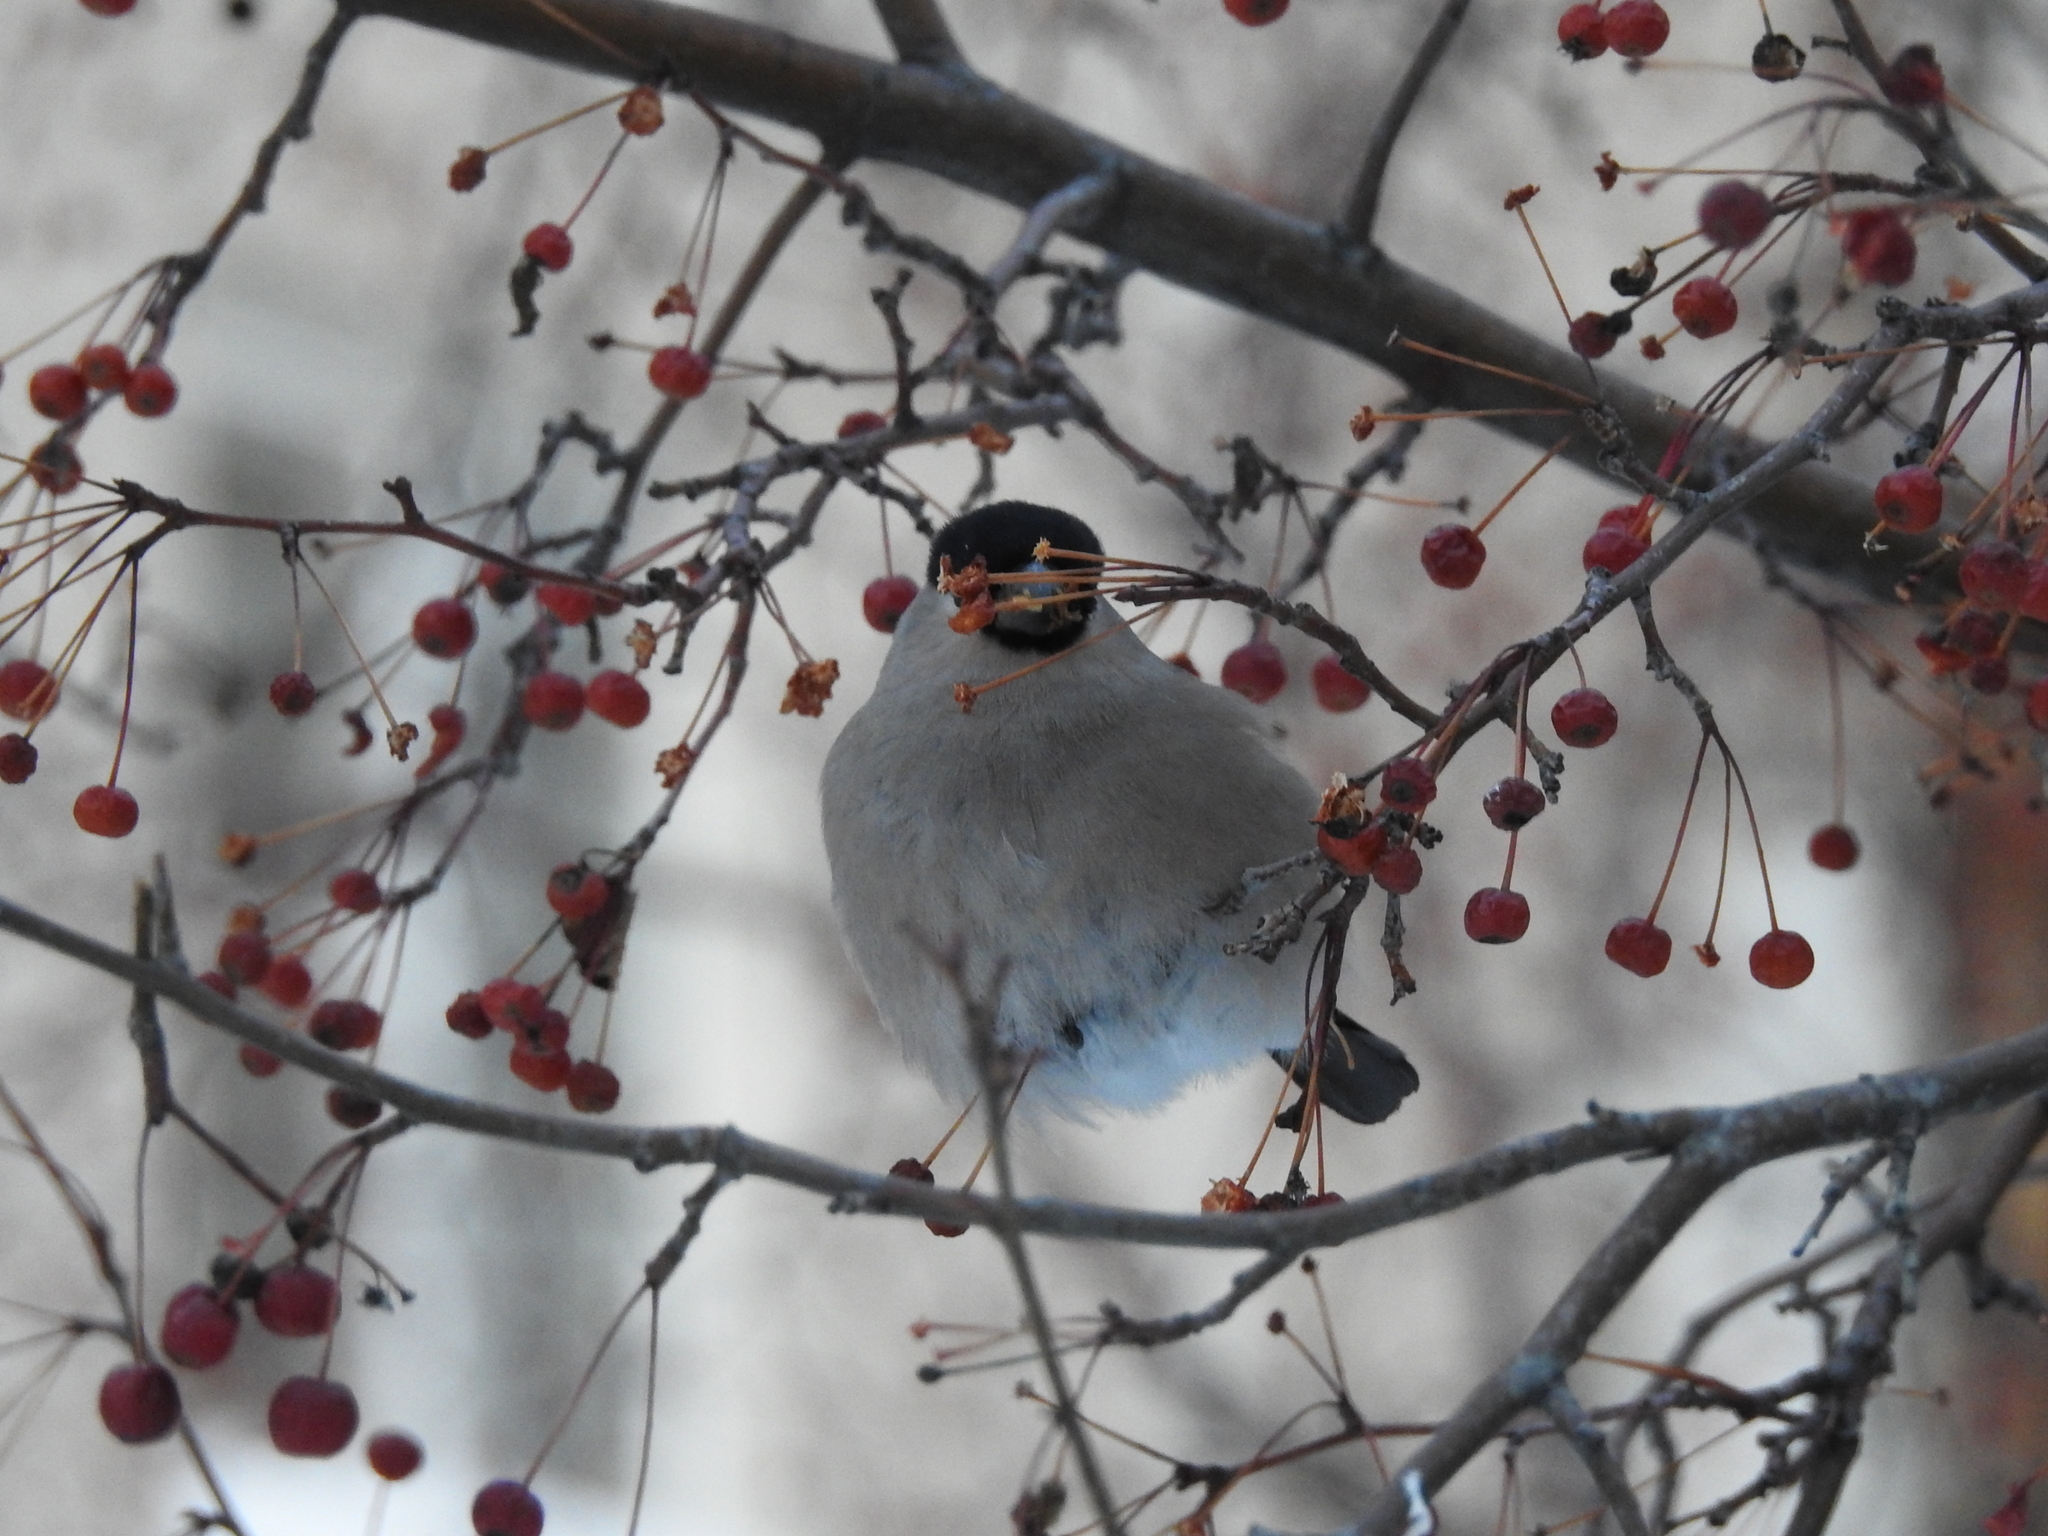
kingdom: Animalia
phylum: Chordata
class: Aves
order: Passeriformes
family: Fringillidae
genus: Pyrrhula
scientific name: Pyrrhula pyrrhula
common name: Eurasian bullfinch
